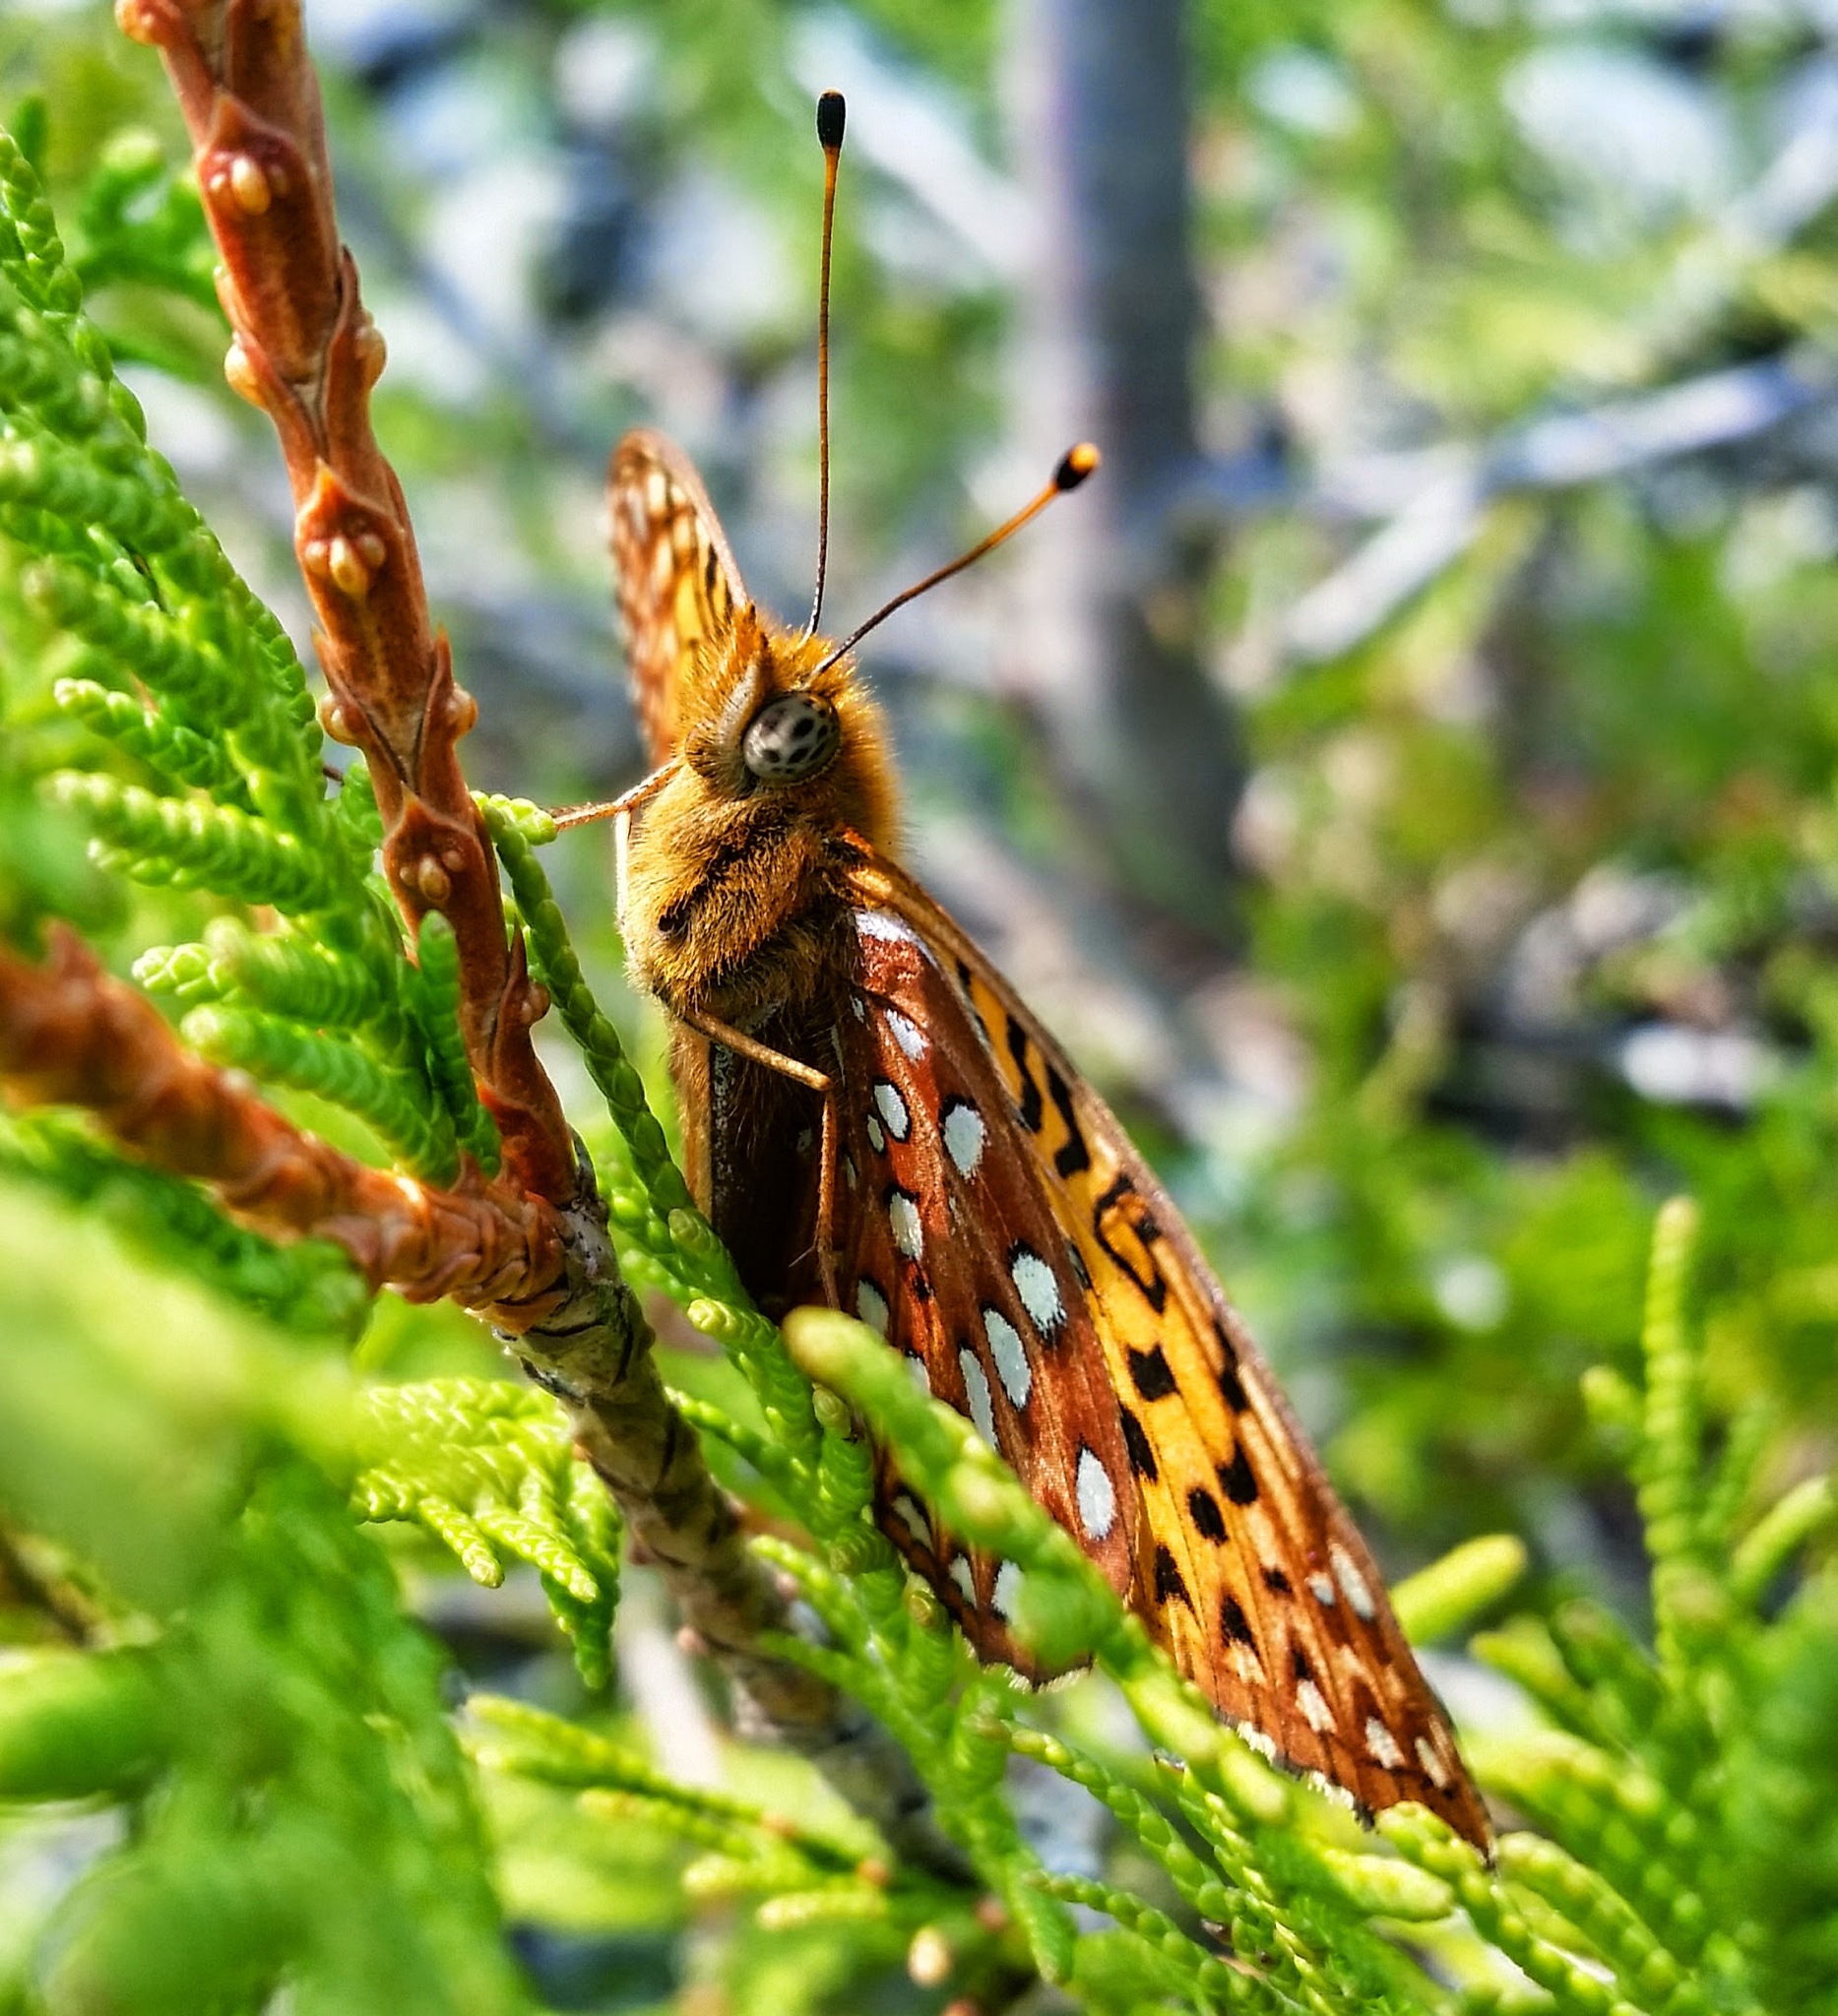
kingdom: Animalia
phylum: Arthropoda
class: Insecta
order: Lepidoptera
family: Nymphalidae
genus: Speyeria
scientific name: Speyeria aphrodite
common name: Aphrodite friitllary
